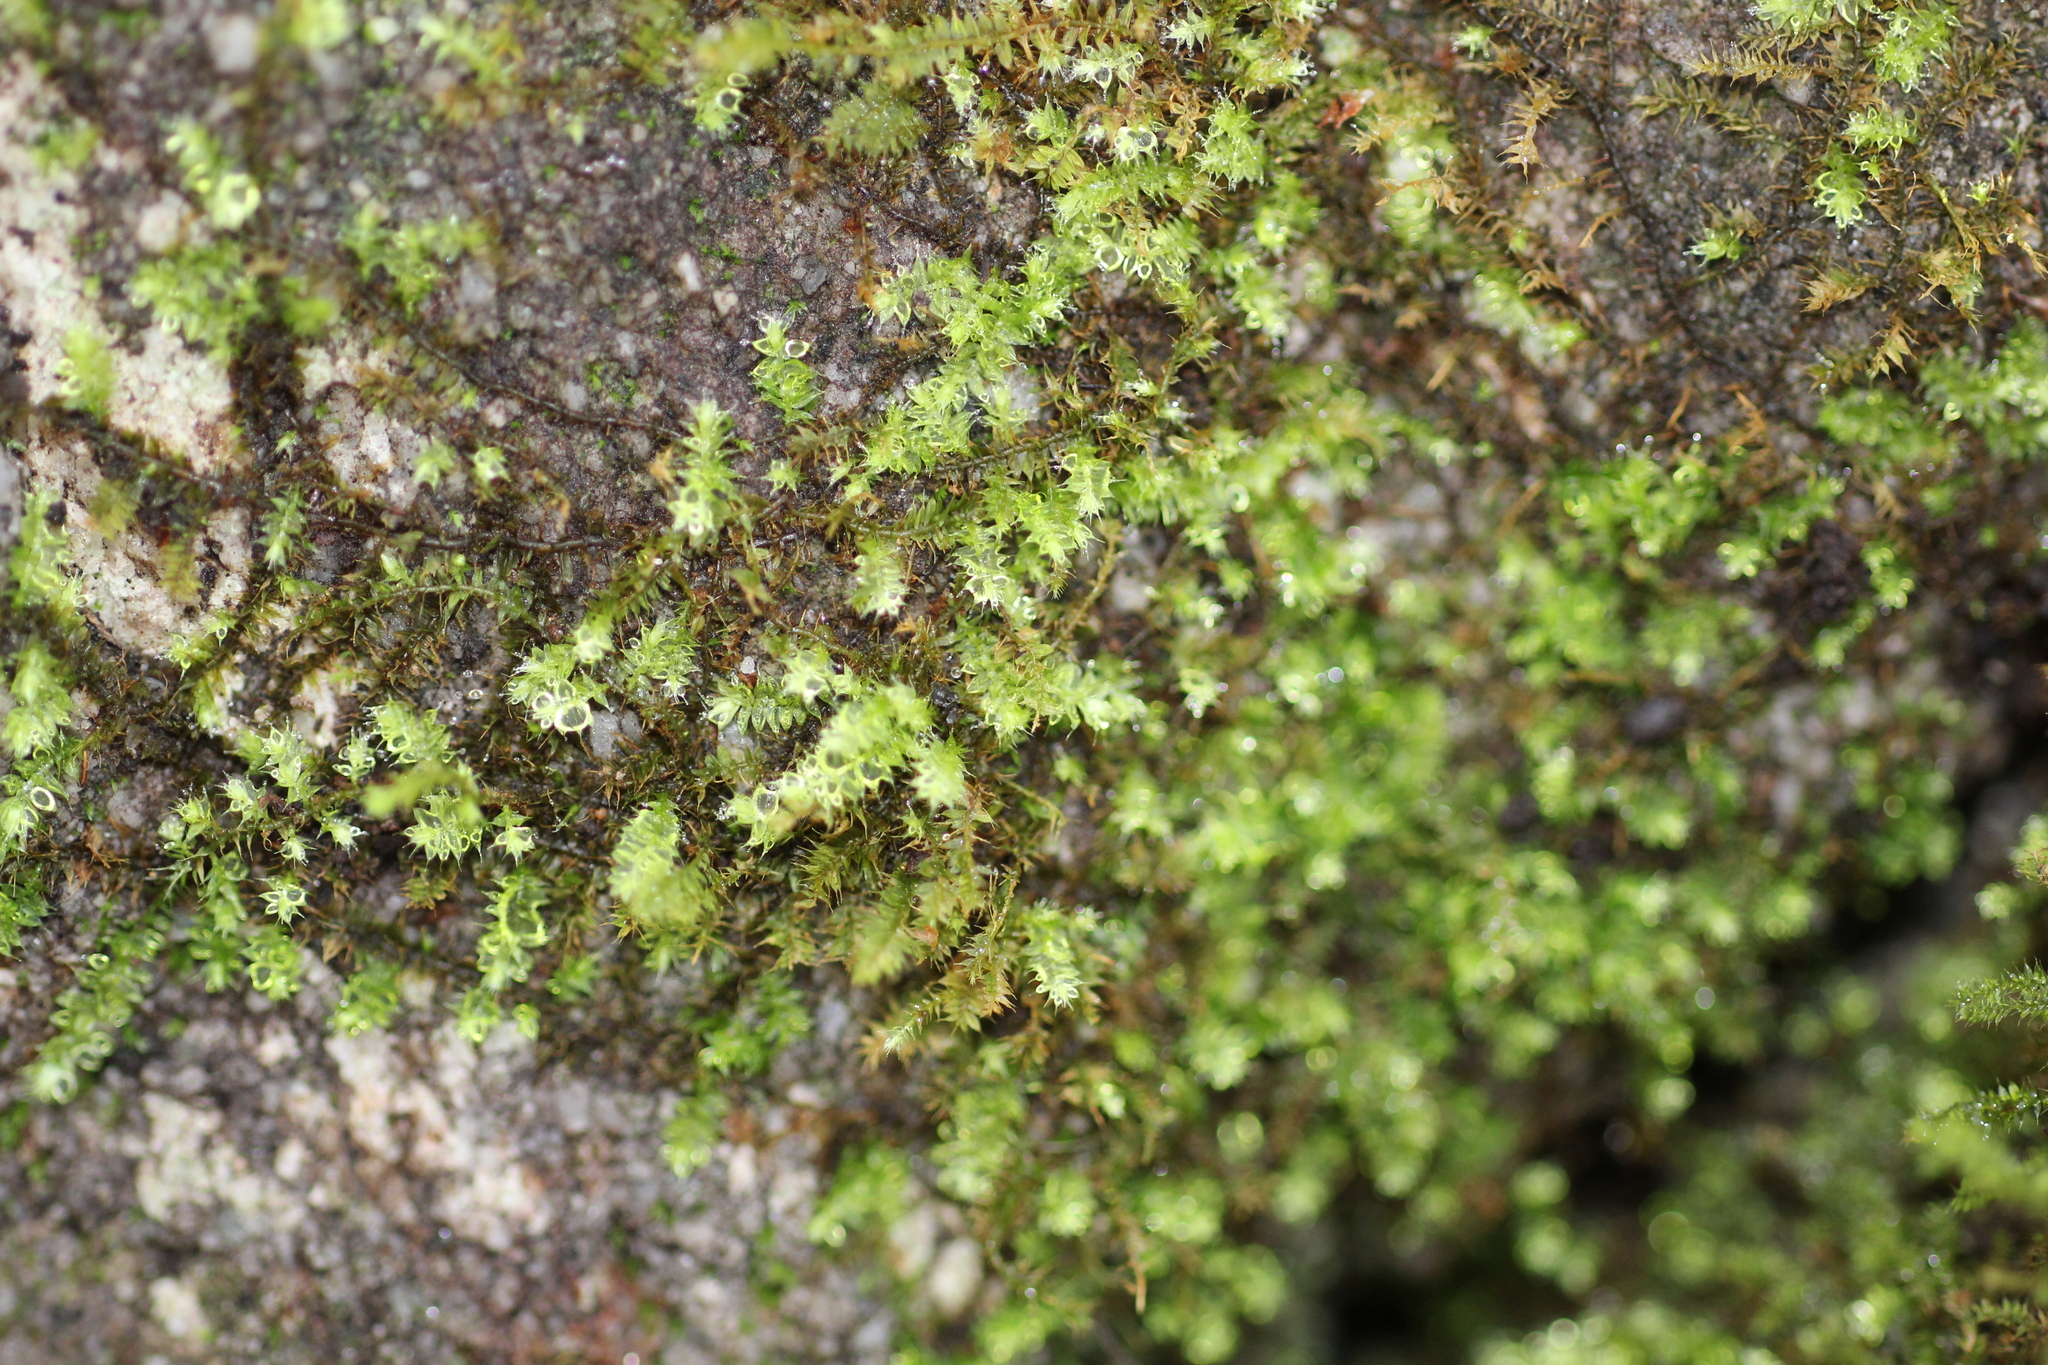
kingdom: Plantae
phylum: Bryophyta
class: Bryopsida
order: Hypnodendrales
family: Racopilaceae
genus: Racopilum
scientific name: Racopilum cuspidigerum
